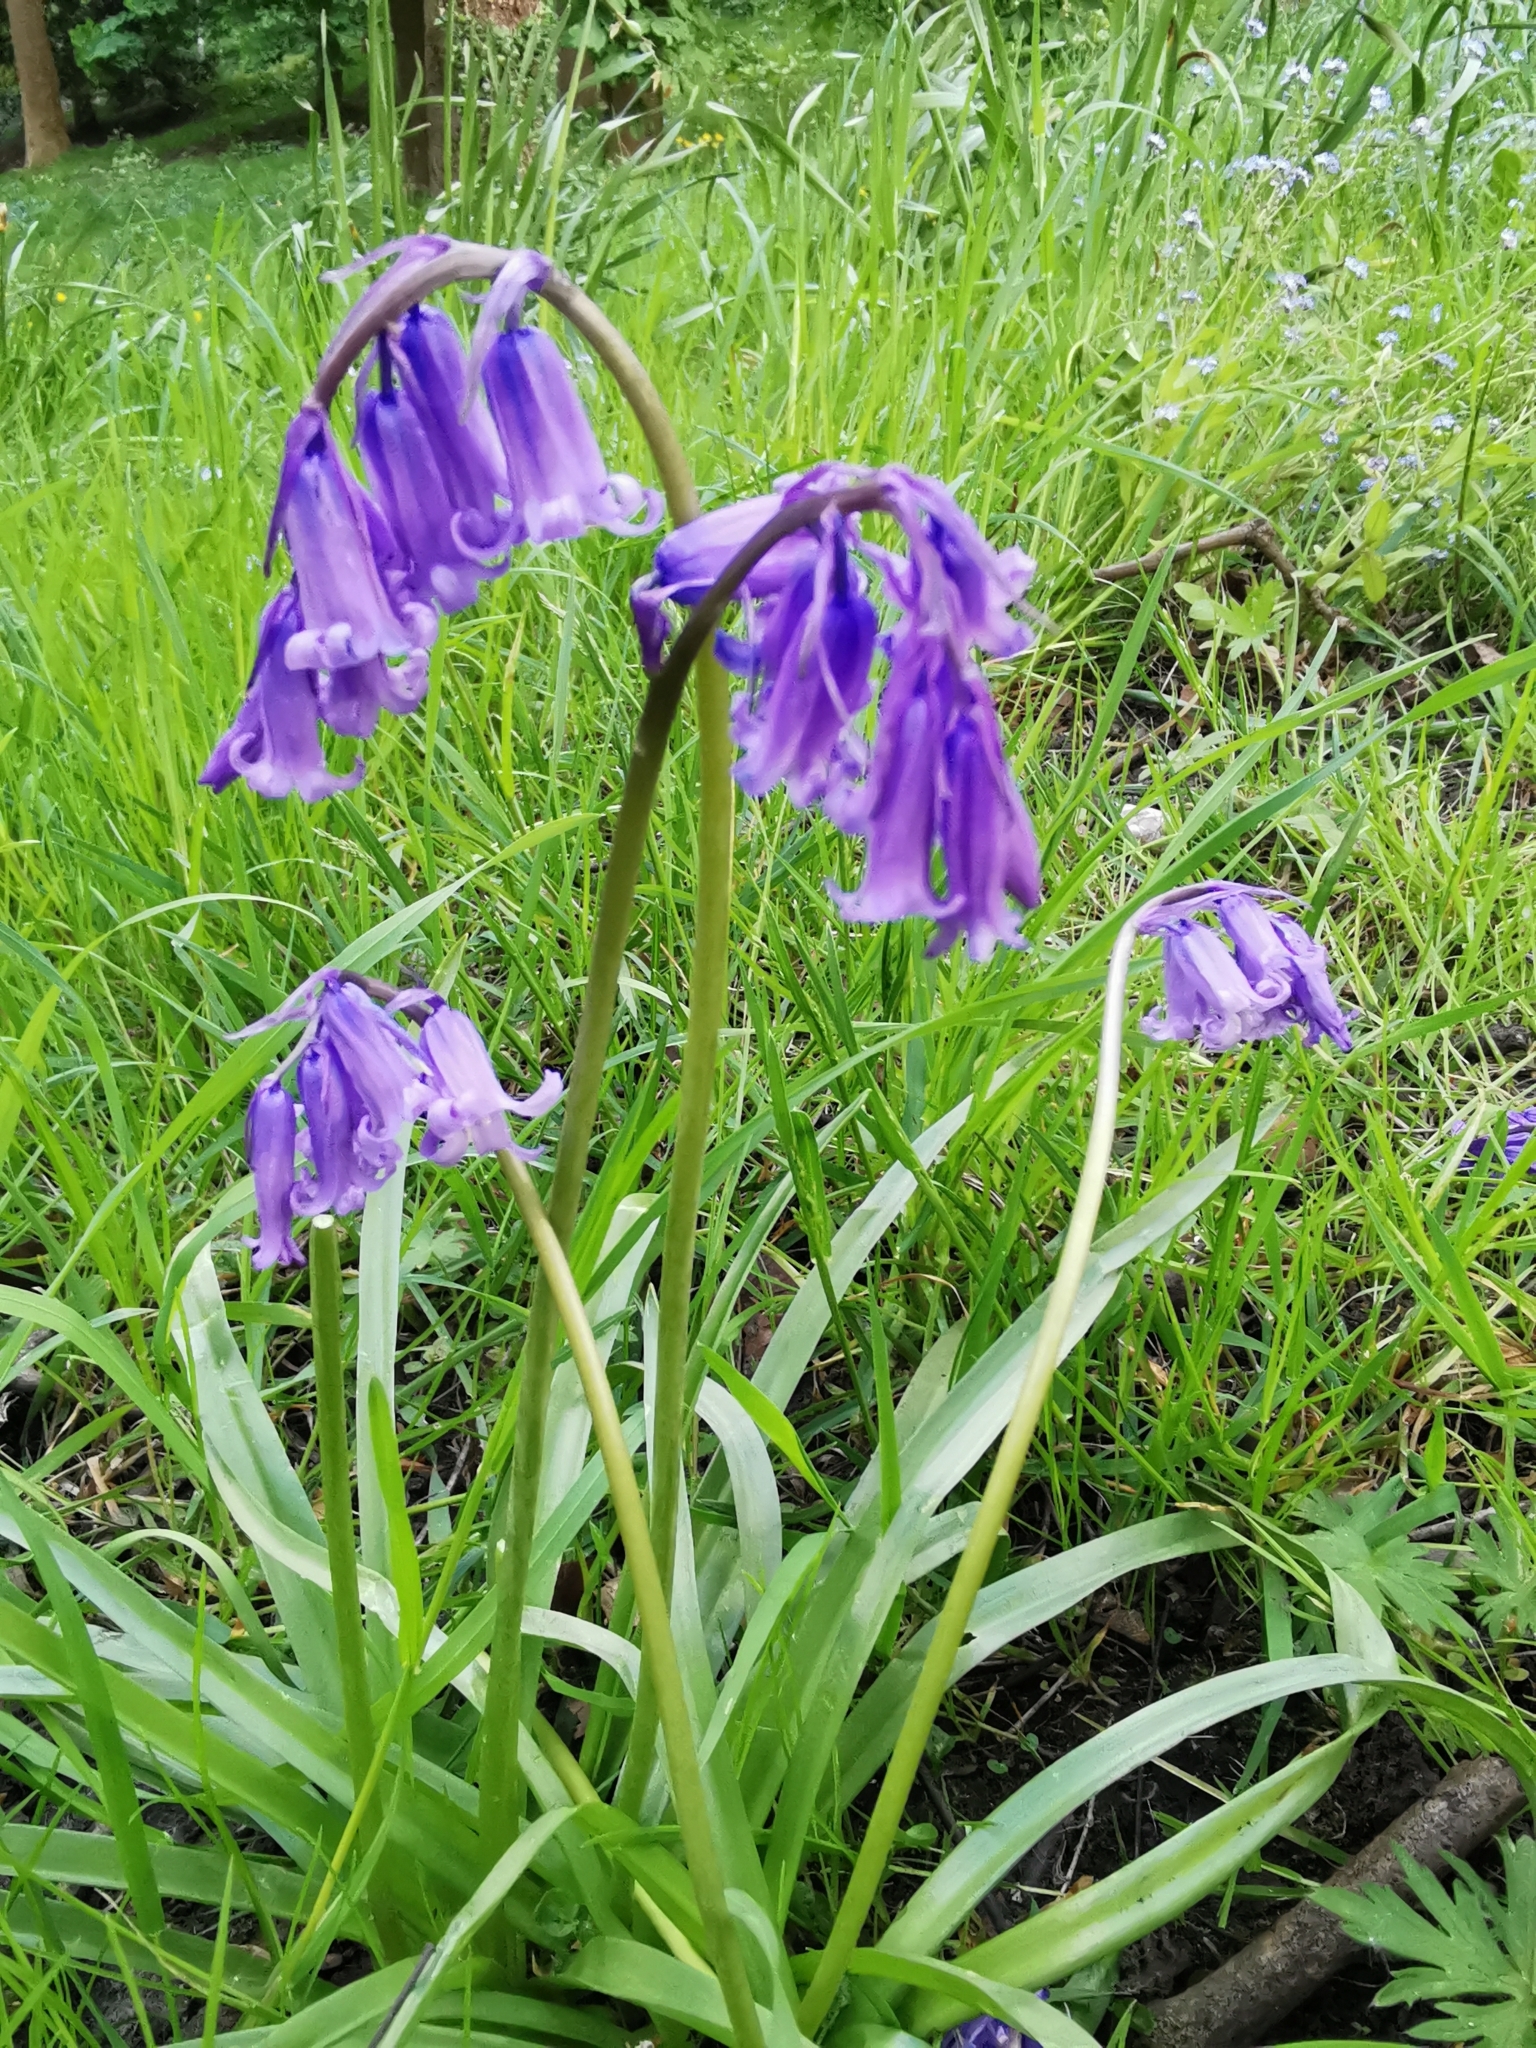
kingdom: Plantae
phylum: Tracheophyta
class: Liliopsida
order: Asparagales
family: Asparagaceae
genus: Hyacinthoides
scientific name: Hyacinthoides non-scripta
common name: Bluebell
